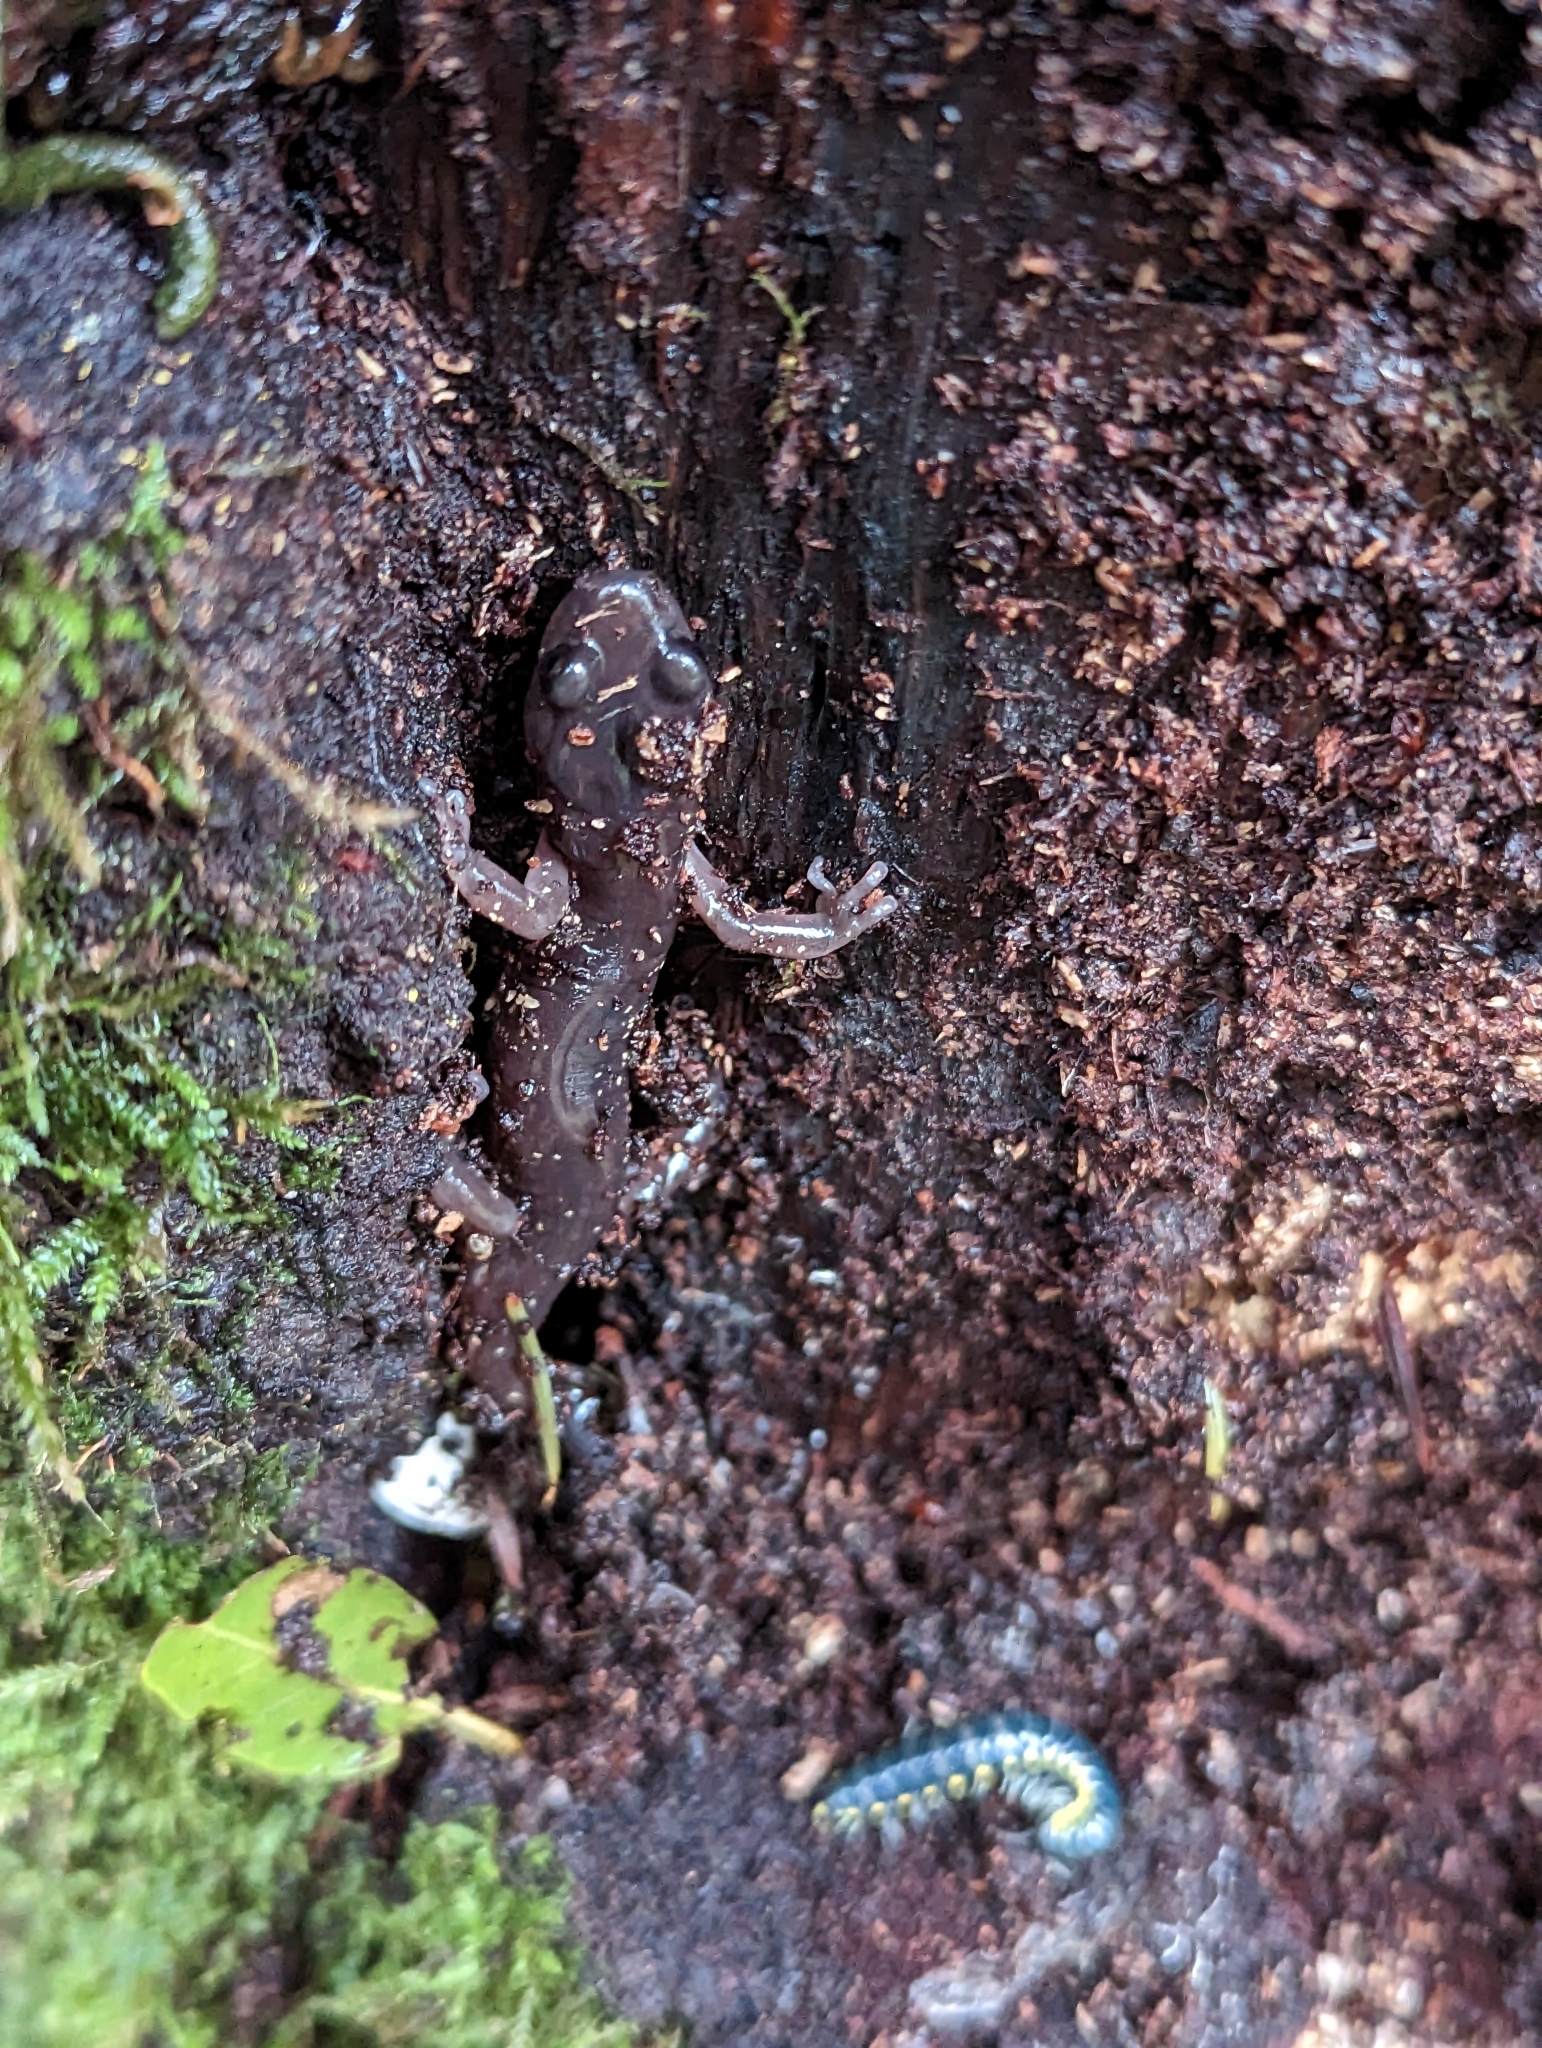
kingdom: Animalia
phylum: Chordata
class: Amphibia
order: Caudata
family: Plethodontidae
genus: Aneides
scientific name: Aneides lugubris
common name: Arboreal salamander
